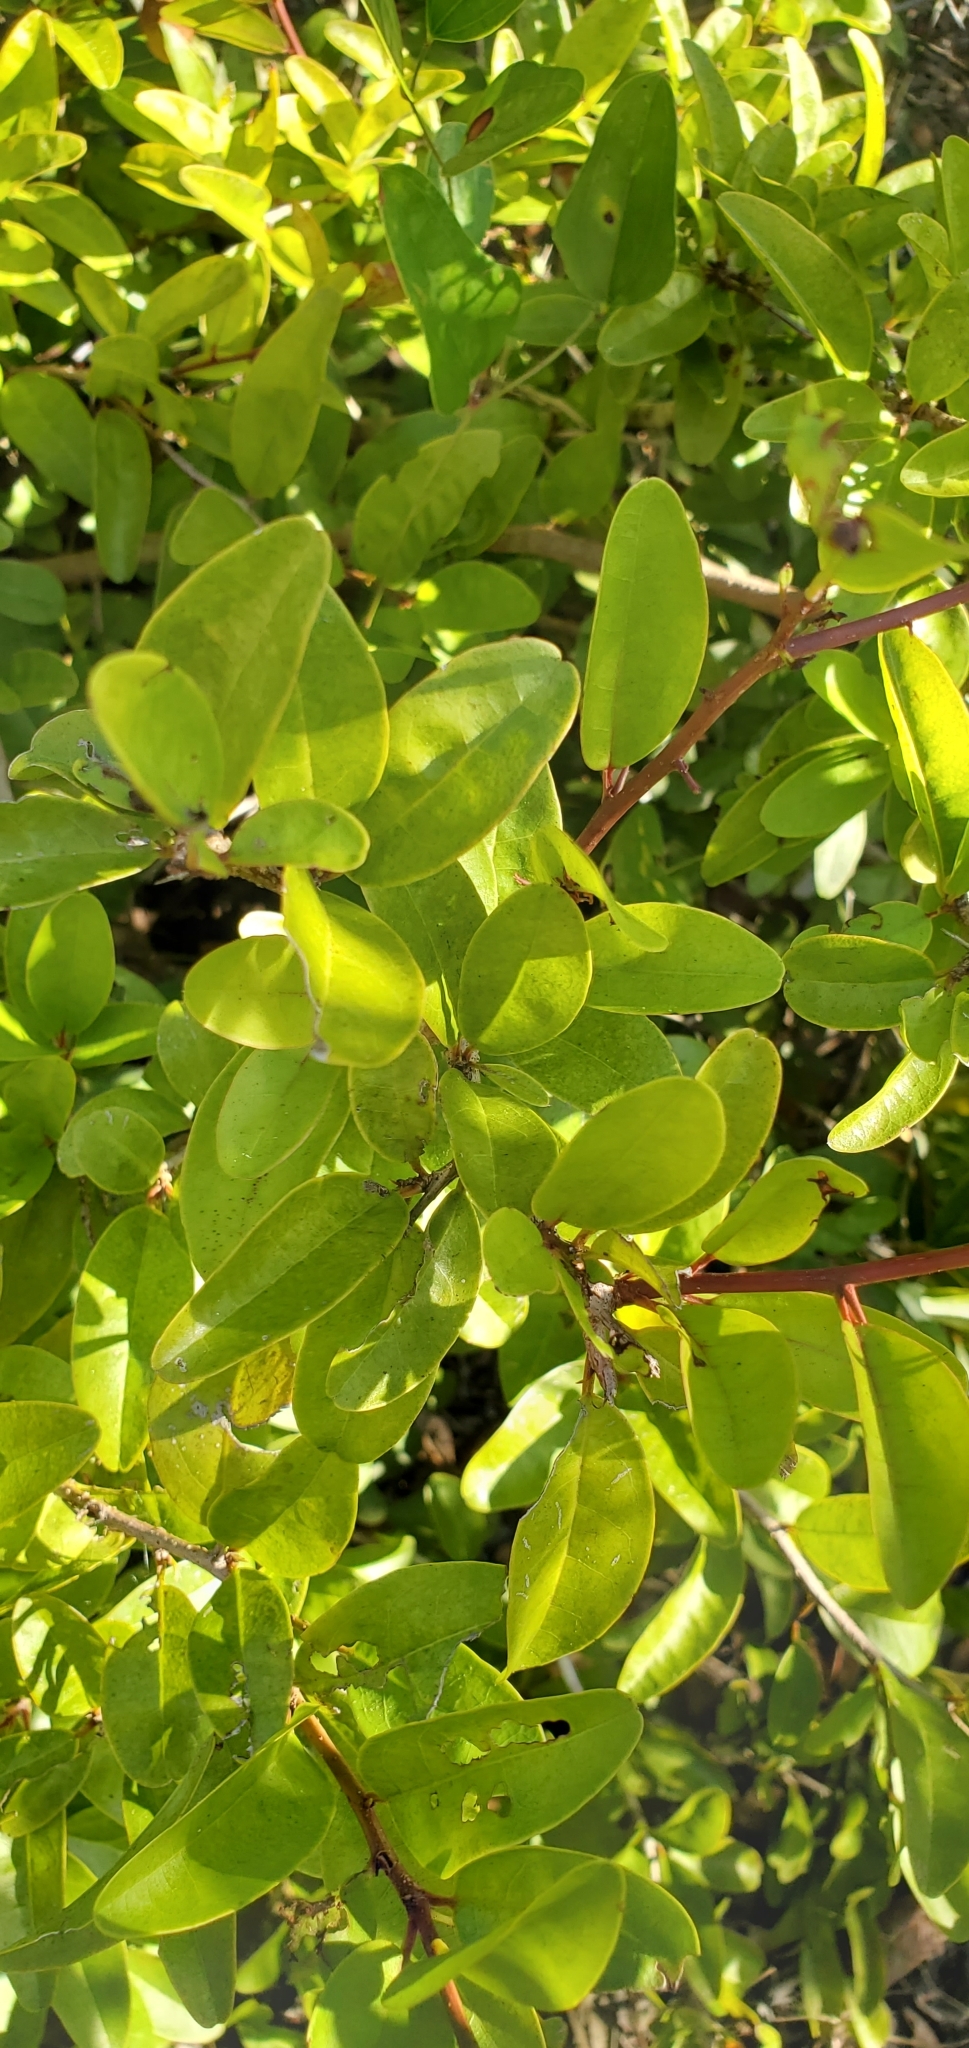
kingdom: Plantae
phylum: Tracheophyta
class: Magnoliopsida
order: Santalales
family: Ximeniaceae
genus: Ximenia
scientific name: Ximenia americana
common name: Tallowwood
